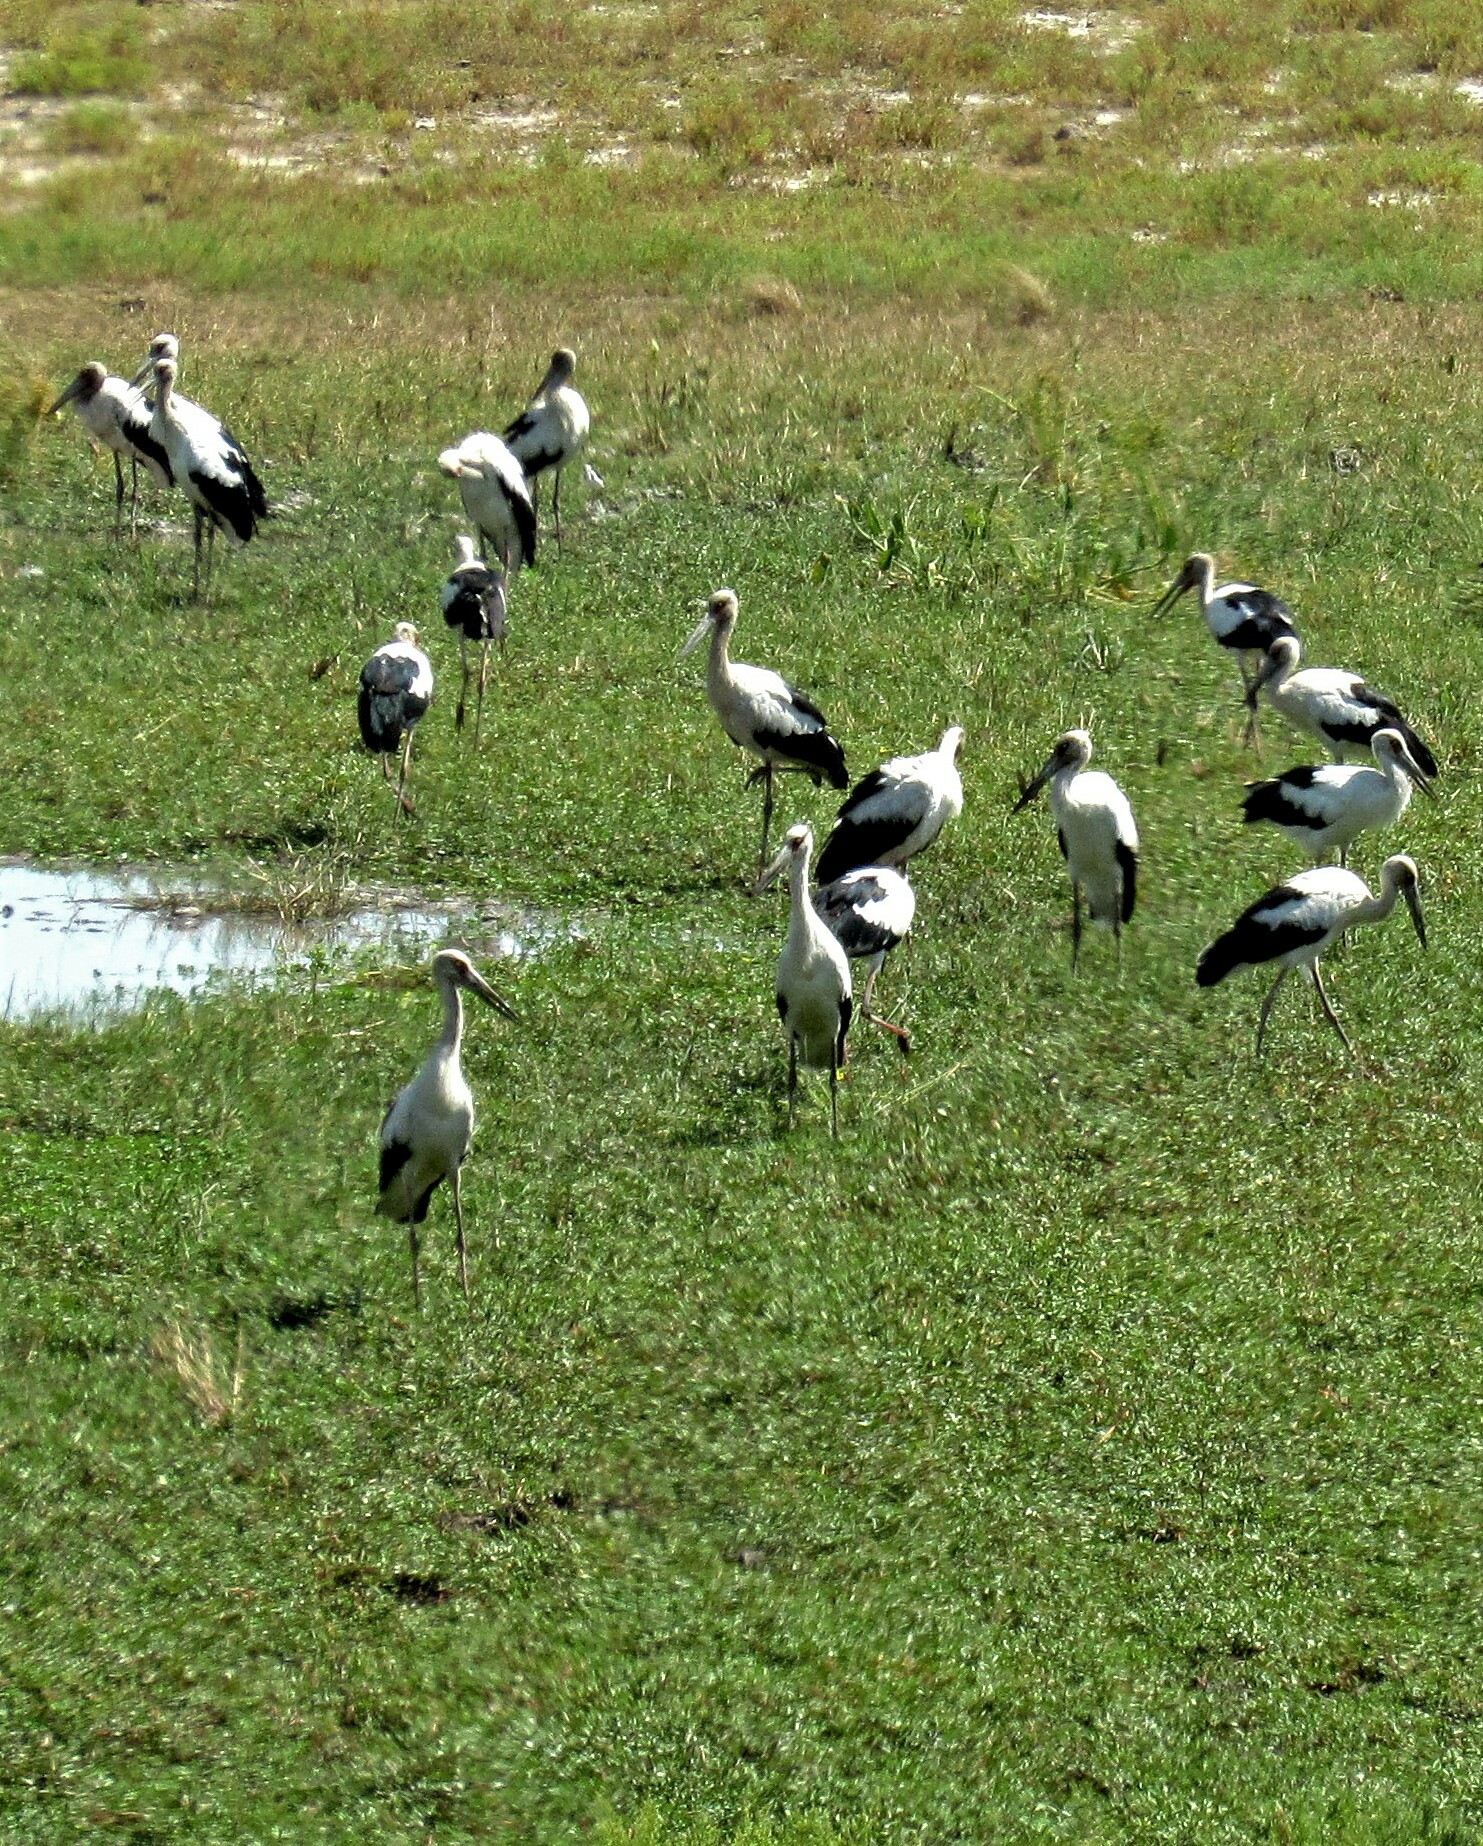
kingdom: Animalia
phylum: Chordata
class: Aves
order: Ciconiiformes
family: Ciconiidae
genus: Ciconia
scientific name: Ciconia maguari
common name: Maguari stork
